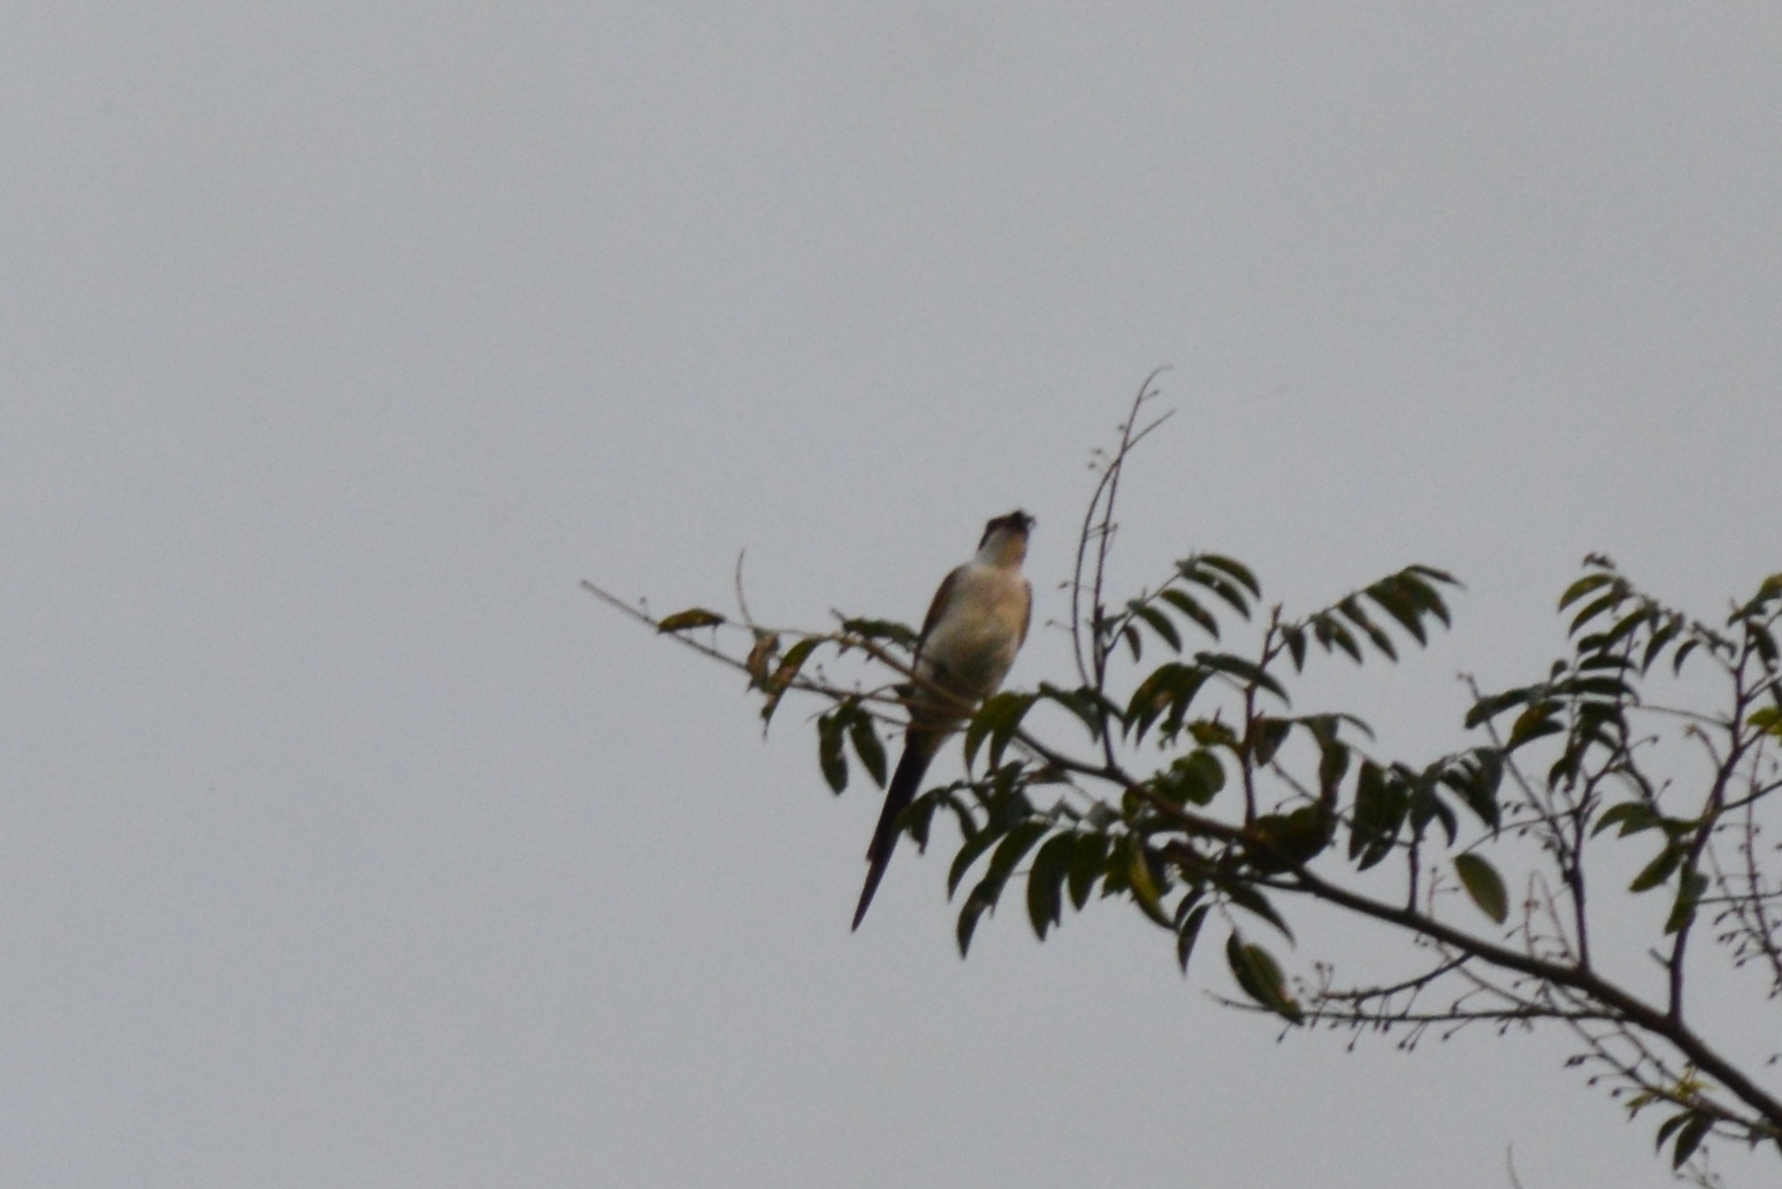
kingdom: Animalia
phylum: Chordata
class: Aves
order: Passeriformes
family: Tyrannidae
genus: Tyrannus
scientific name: Tyrannus savana
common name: Fork-tailed flycatcher
